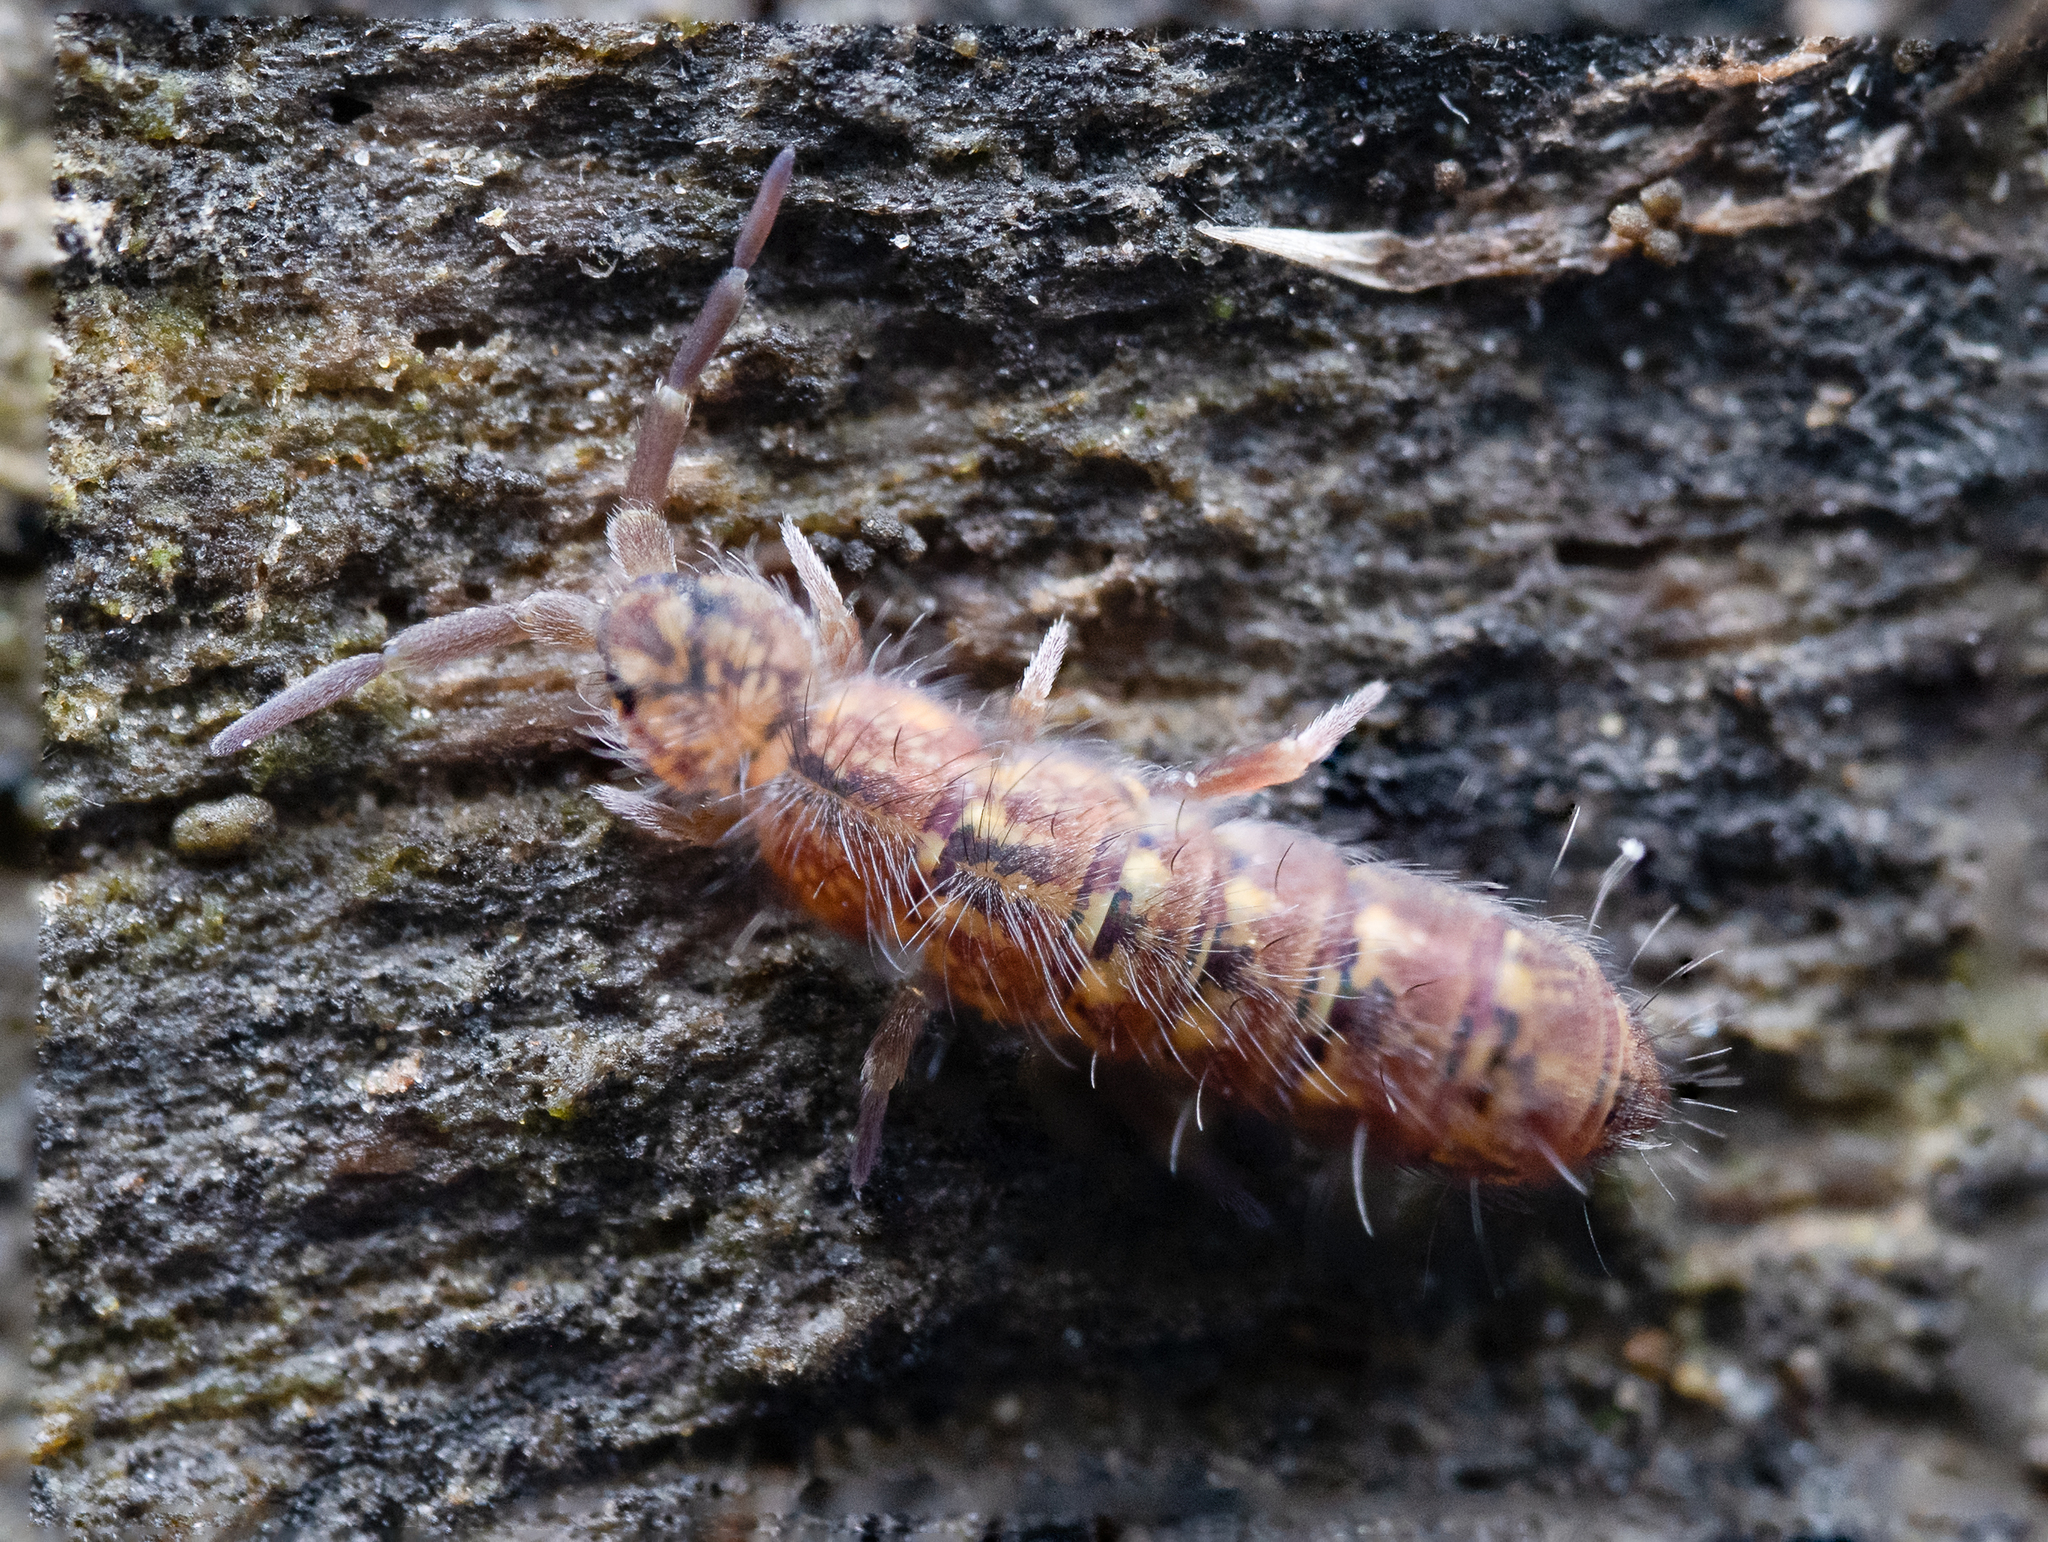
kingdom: Animalia
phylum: Arthropoda
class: Collembola
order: Entomobryomorpha
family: Isotomidae
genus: Isotoma
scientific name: Isotoma viridis
